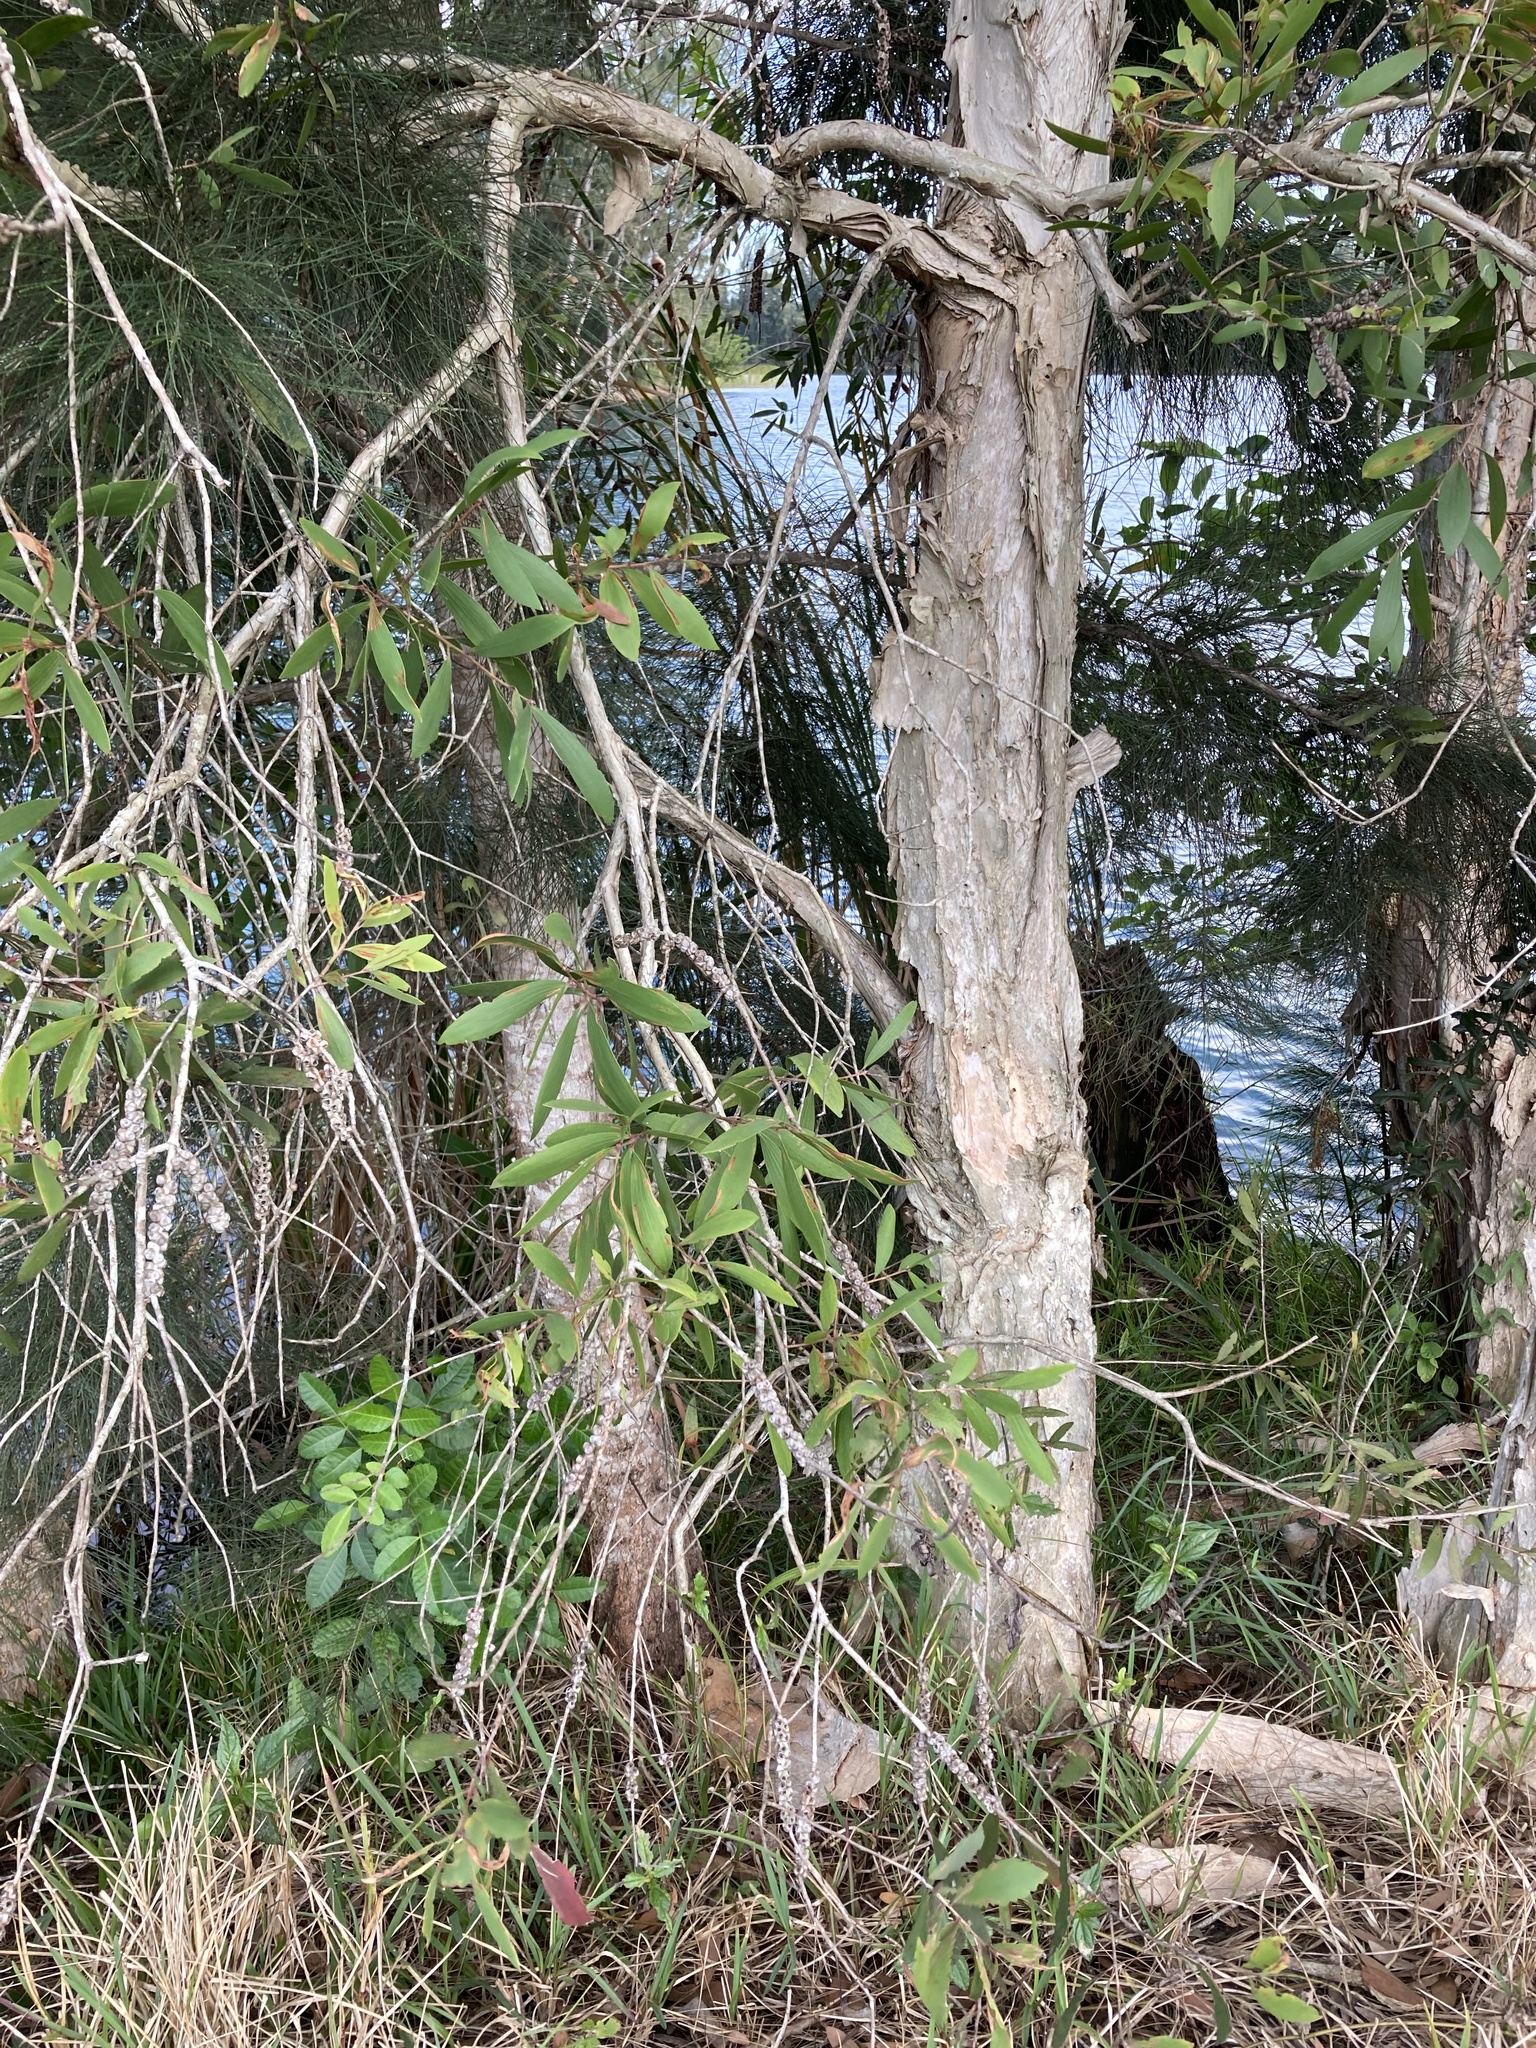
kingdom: Plantae
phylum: Tracheophyta
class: Magnoliopsida
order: Myrtales
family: Myrtaceae
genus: Melaleuca
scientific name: Melaleuca quinquenervia
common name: Punktree
